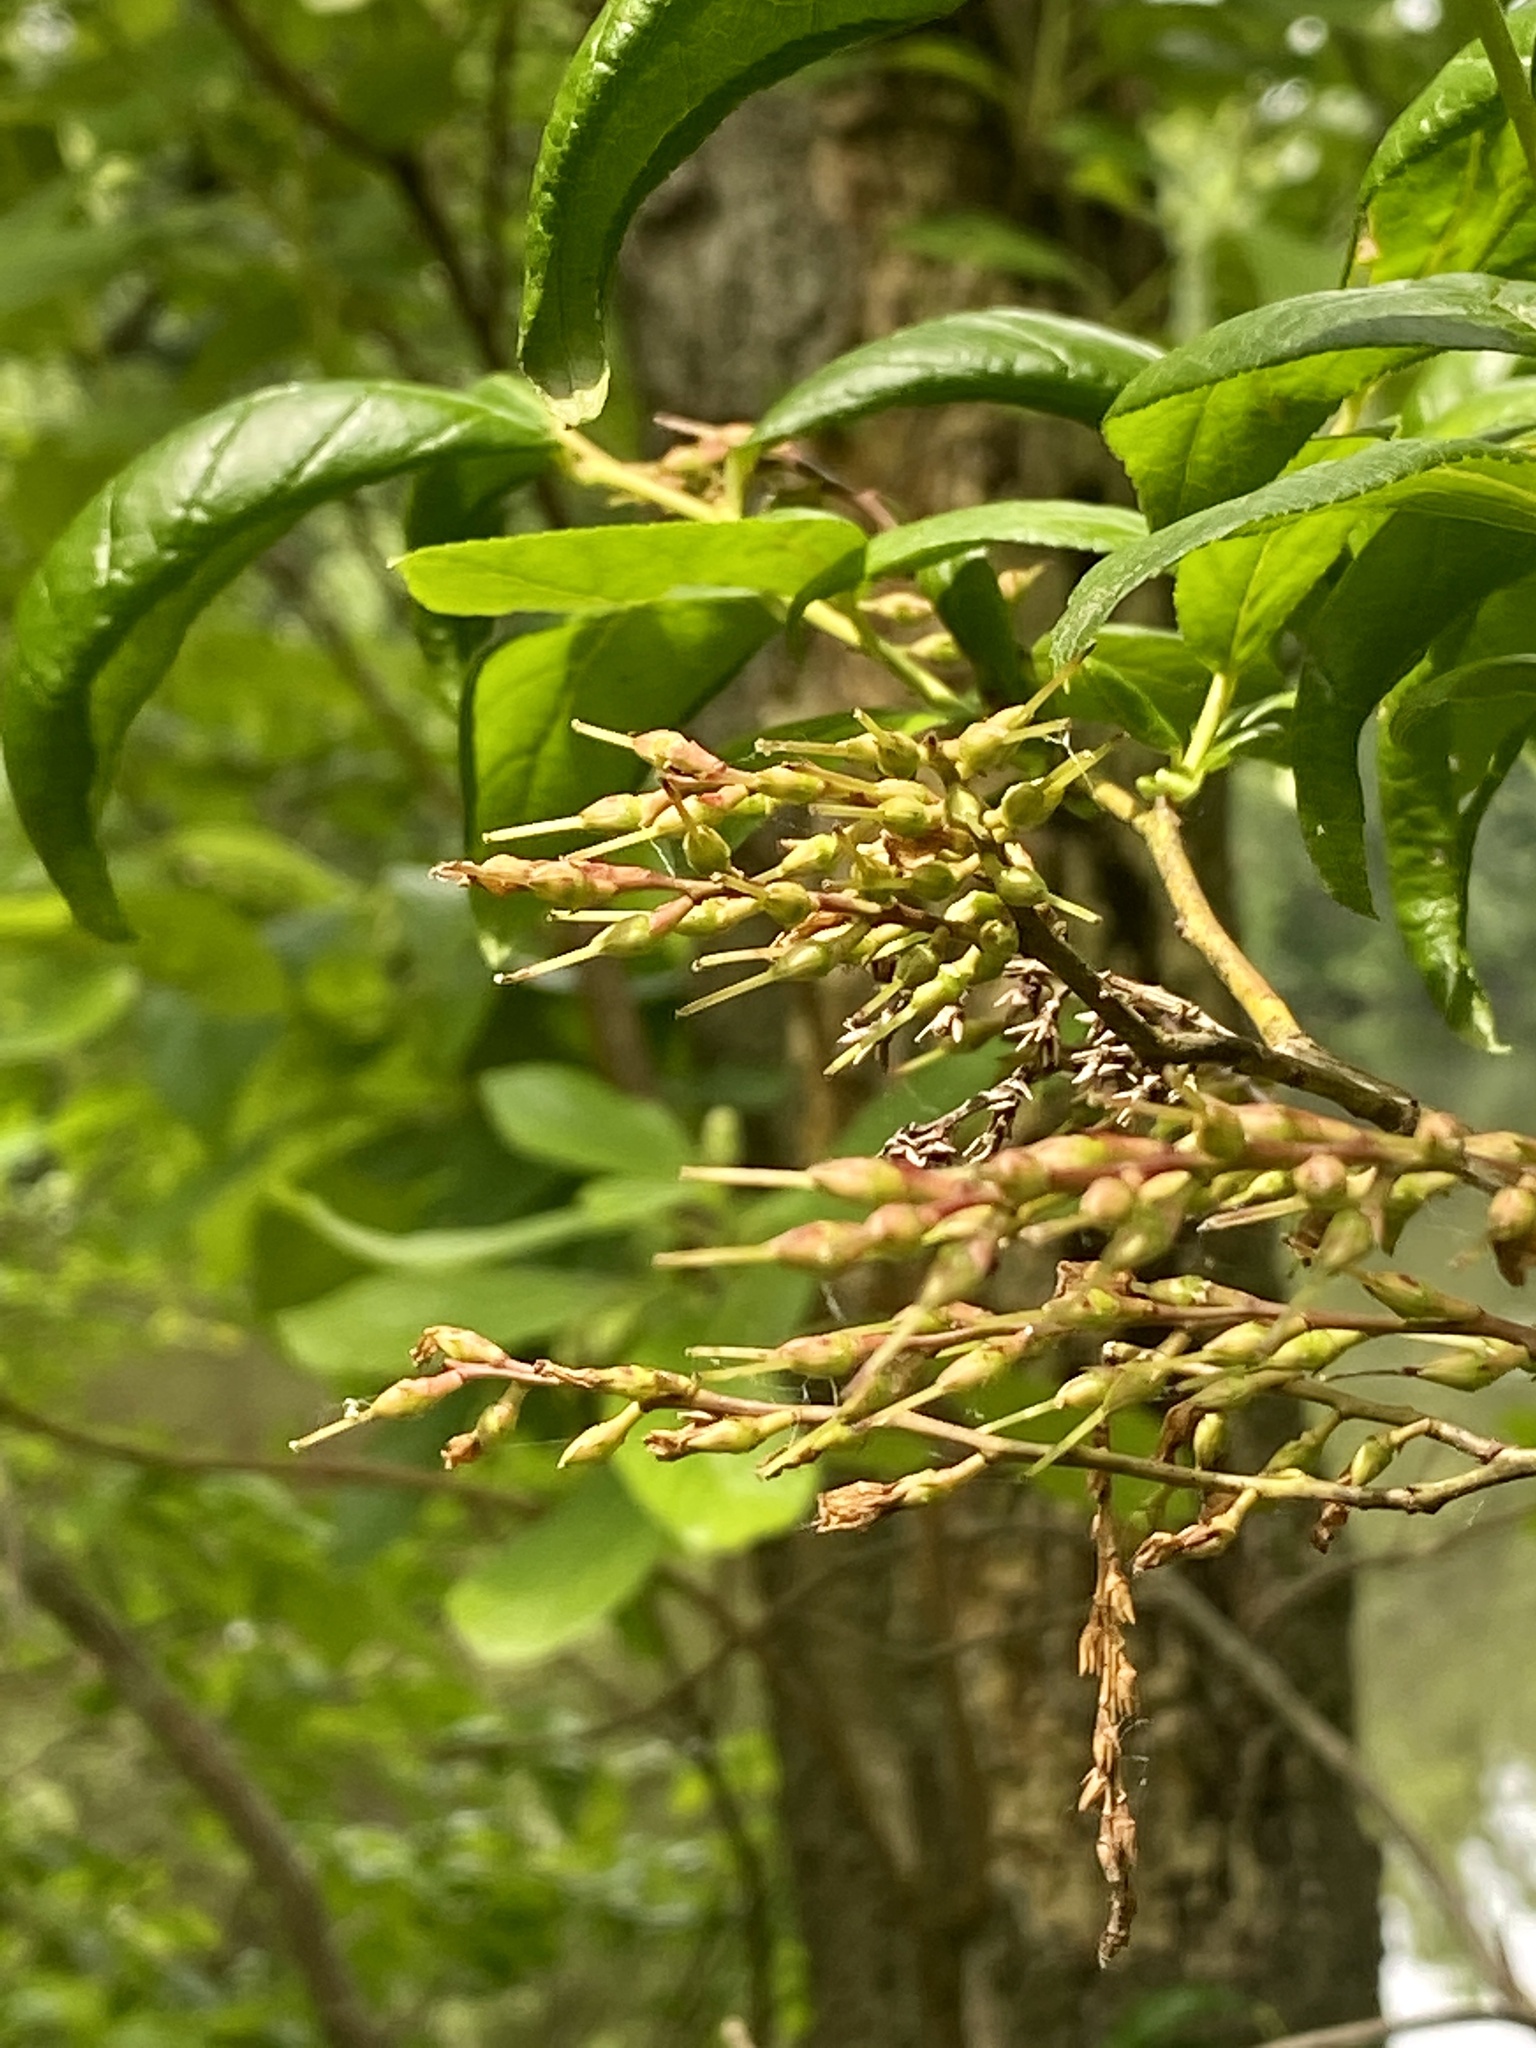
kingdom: Plantae
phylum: Tracheophyta
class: Magnoliopsida
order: Ericales
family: Ericaceae
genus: Eubotrys
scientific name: Eubotrys racemosa
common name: Fetterbush
